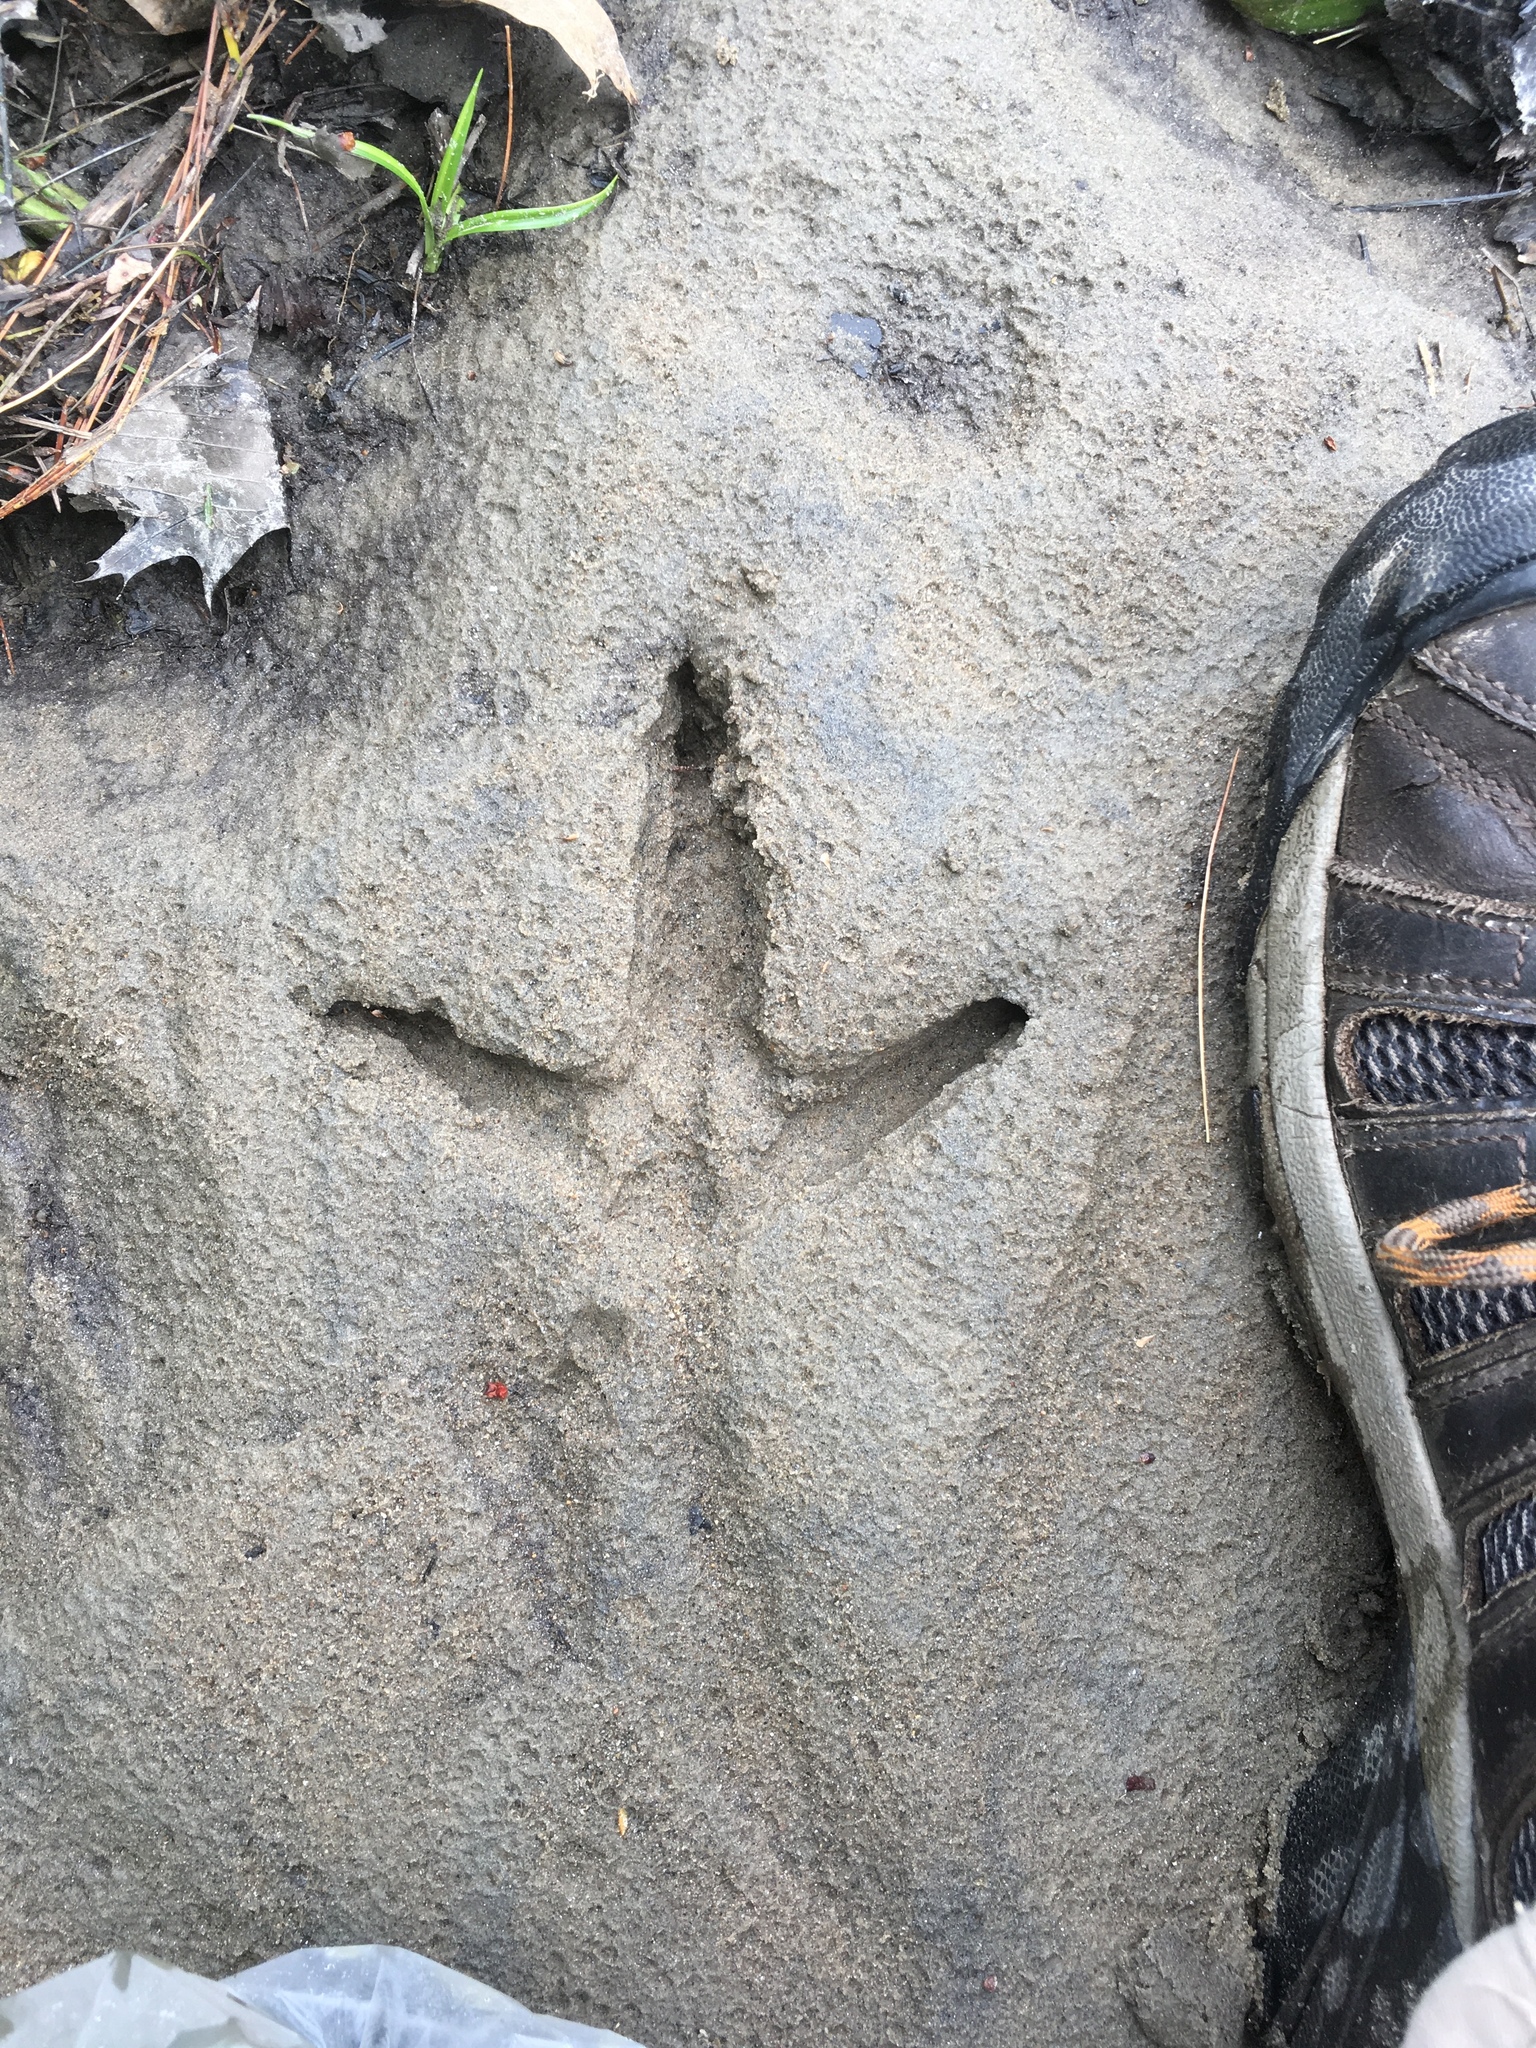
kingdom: Animalia
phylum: Chordata
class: Aves
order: Galliformes
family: Phasianidae
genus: Meleagris
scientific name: Meleagris gallopavo
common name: Wild turkey
